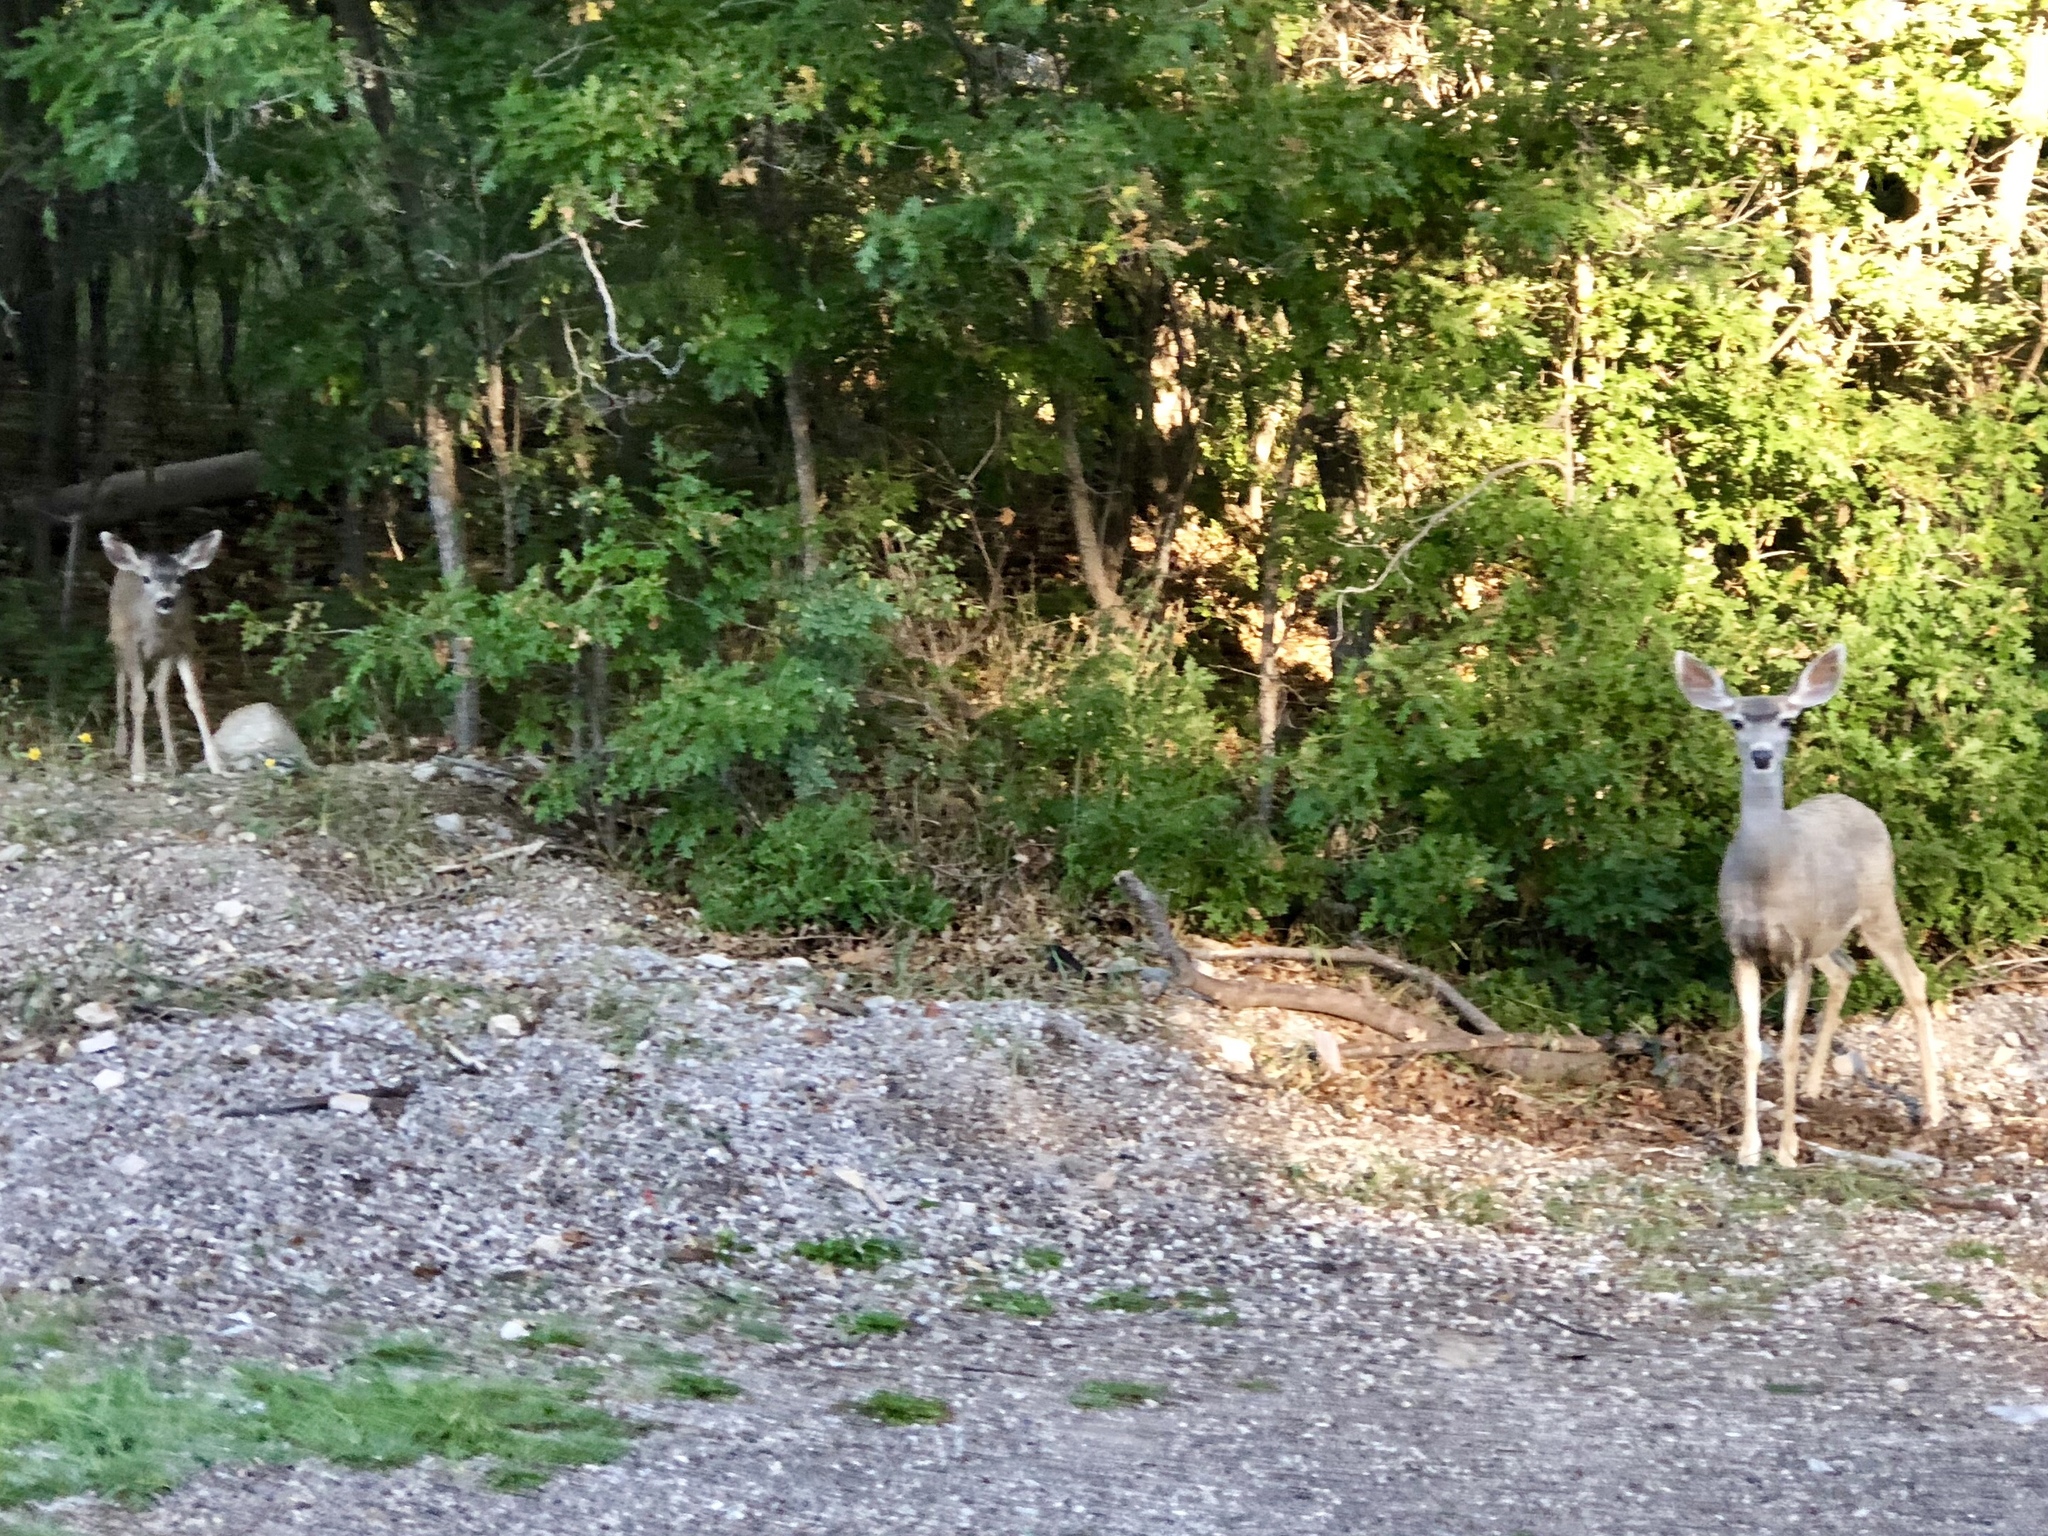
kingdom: Animalia
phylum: Chordata
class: Mammalia
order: Artiodactyla
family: Cervidae
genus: Odocoileus
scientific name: Odocoileus hemionus
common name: Mule deer
